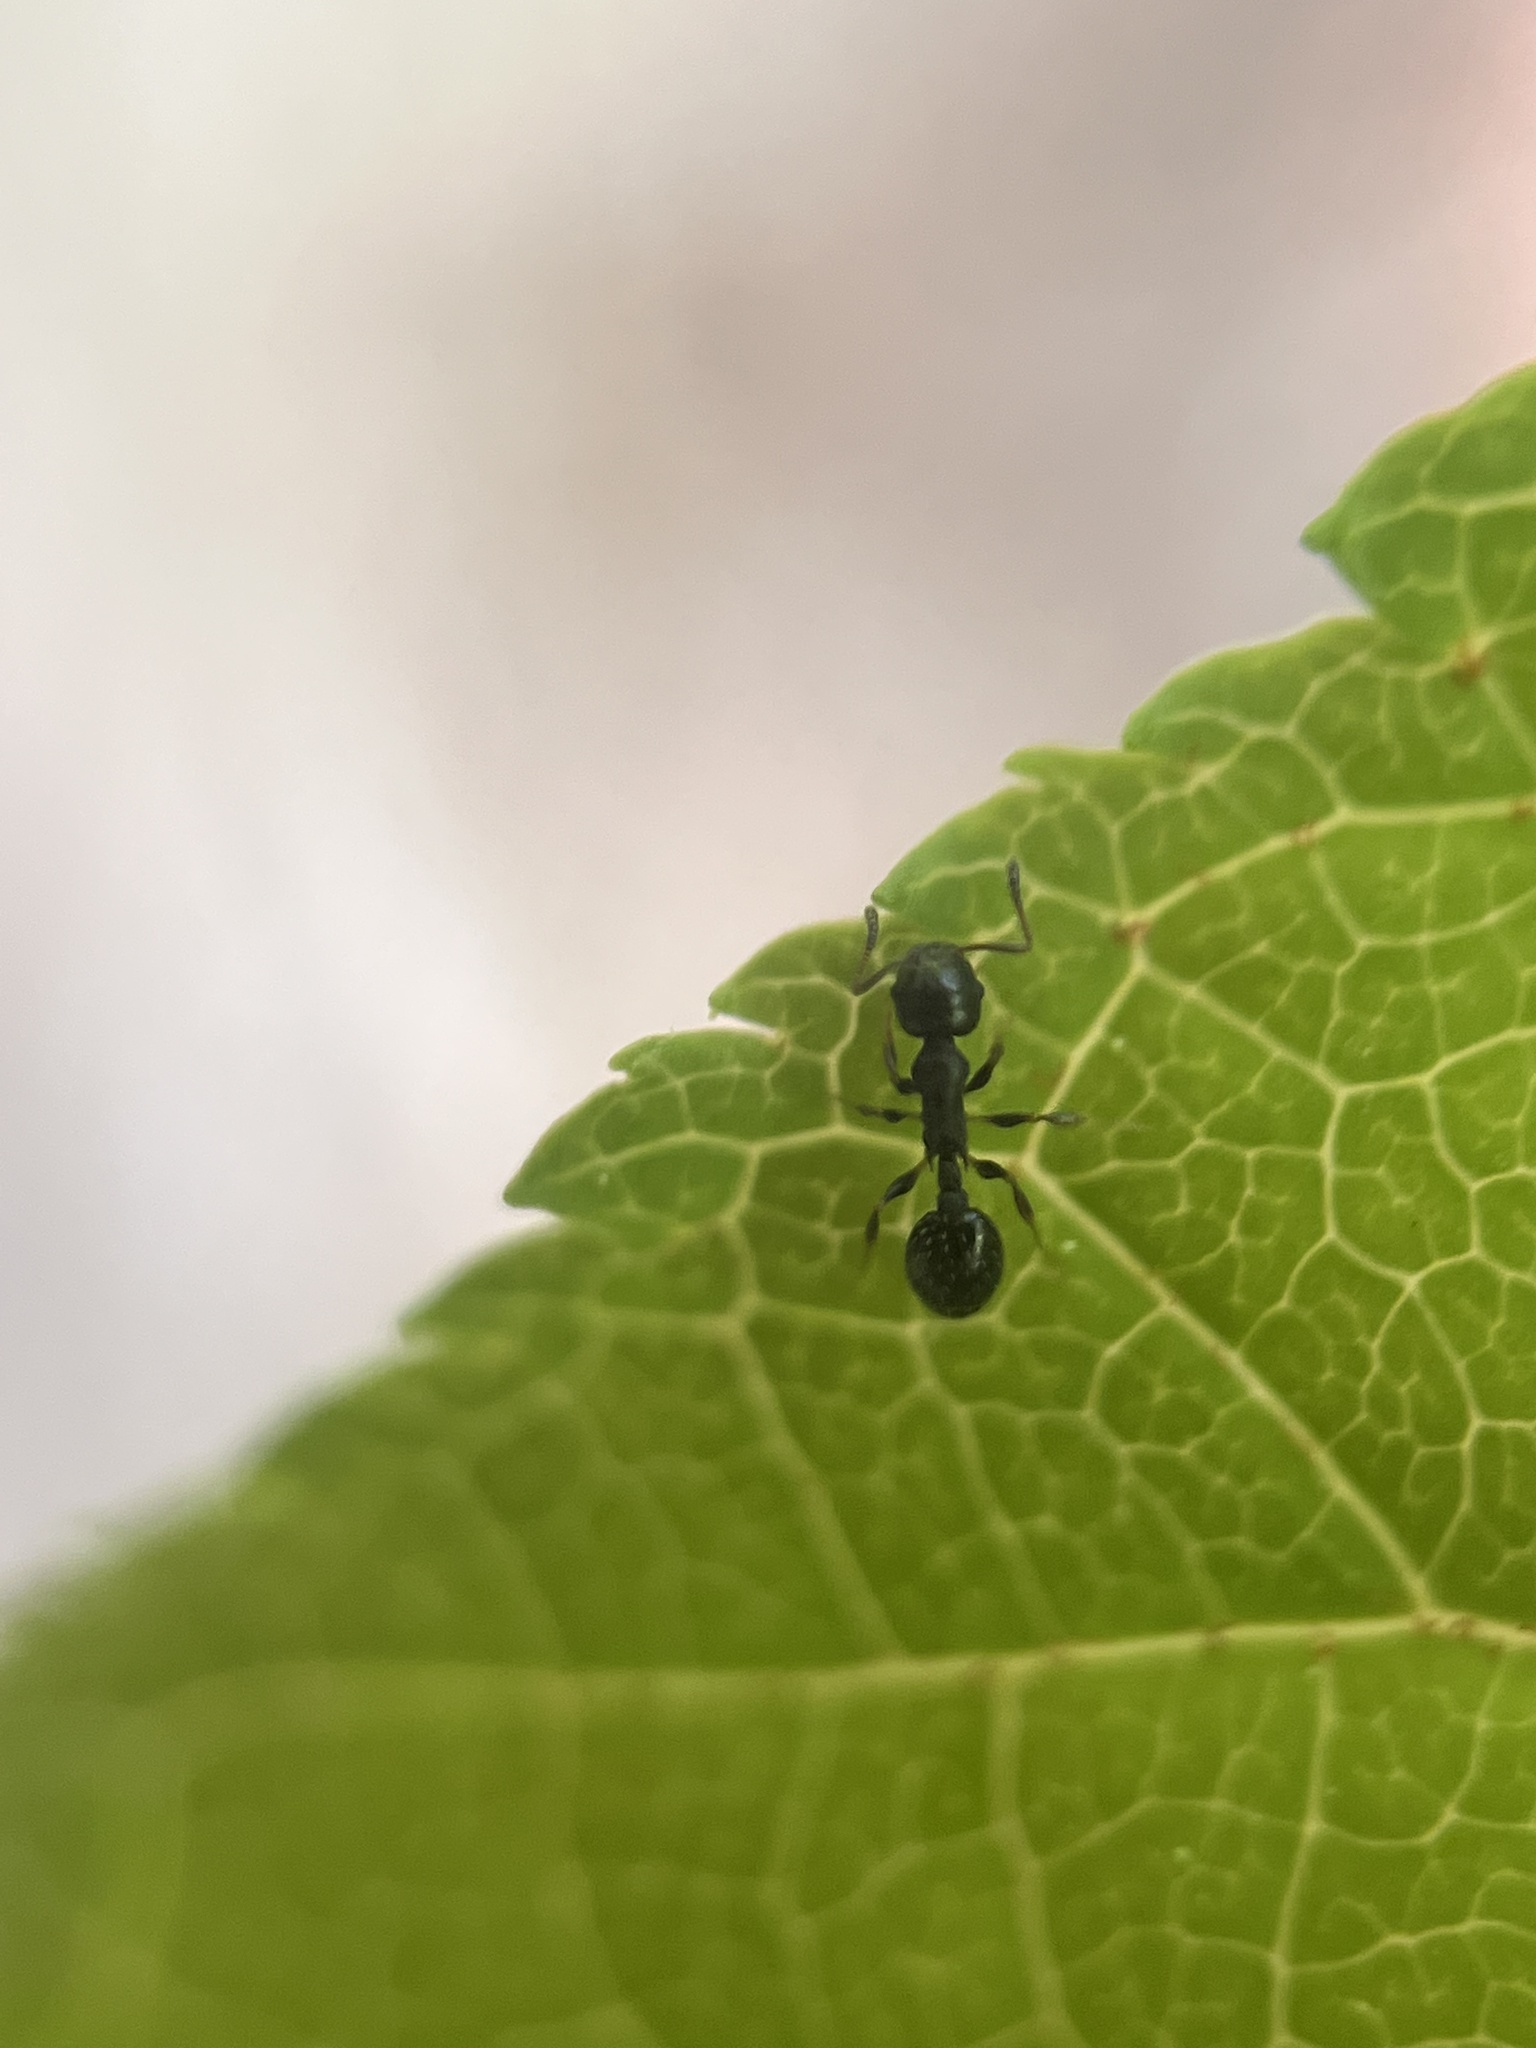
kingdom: Animalia
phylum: Arthropoda
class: Insecta
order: Hymenoptera
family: Formicidae
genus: Temnothorax
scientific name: Temnothorax longispinosus
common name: Long-spined acorn ant
